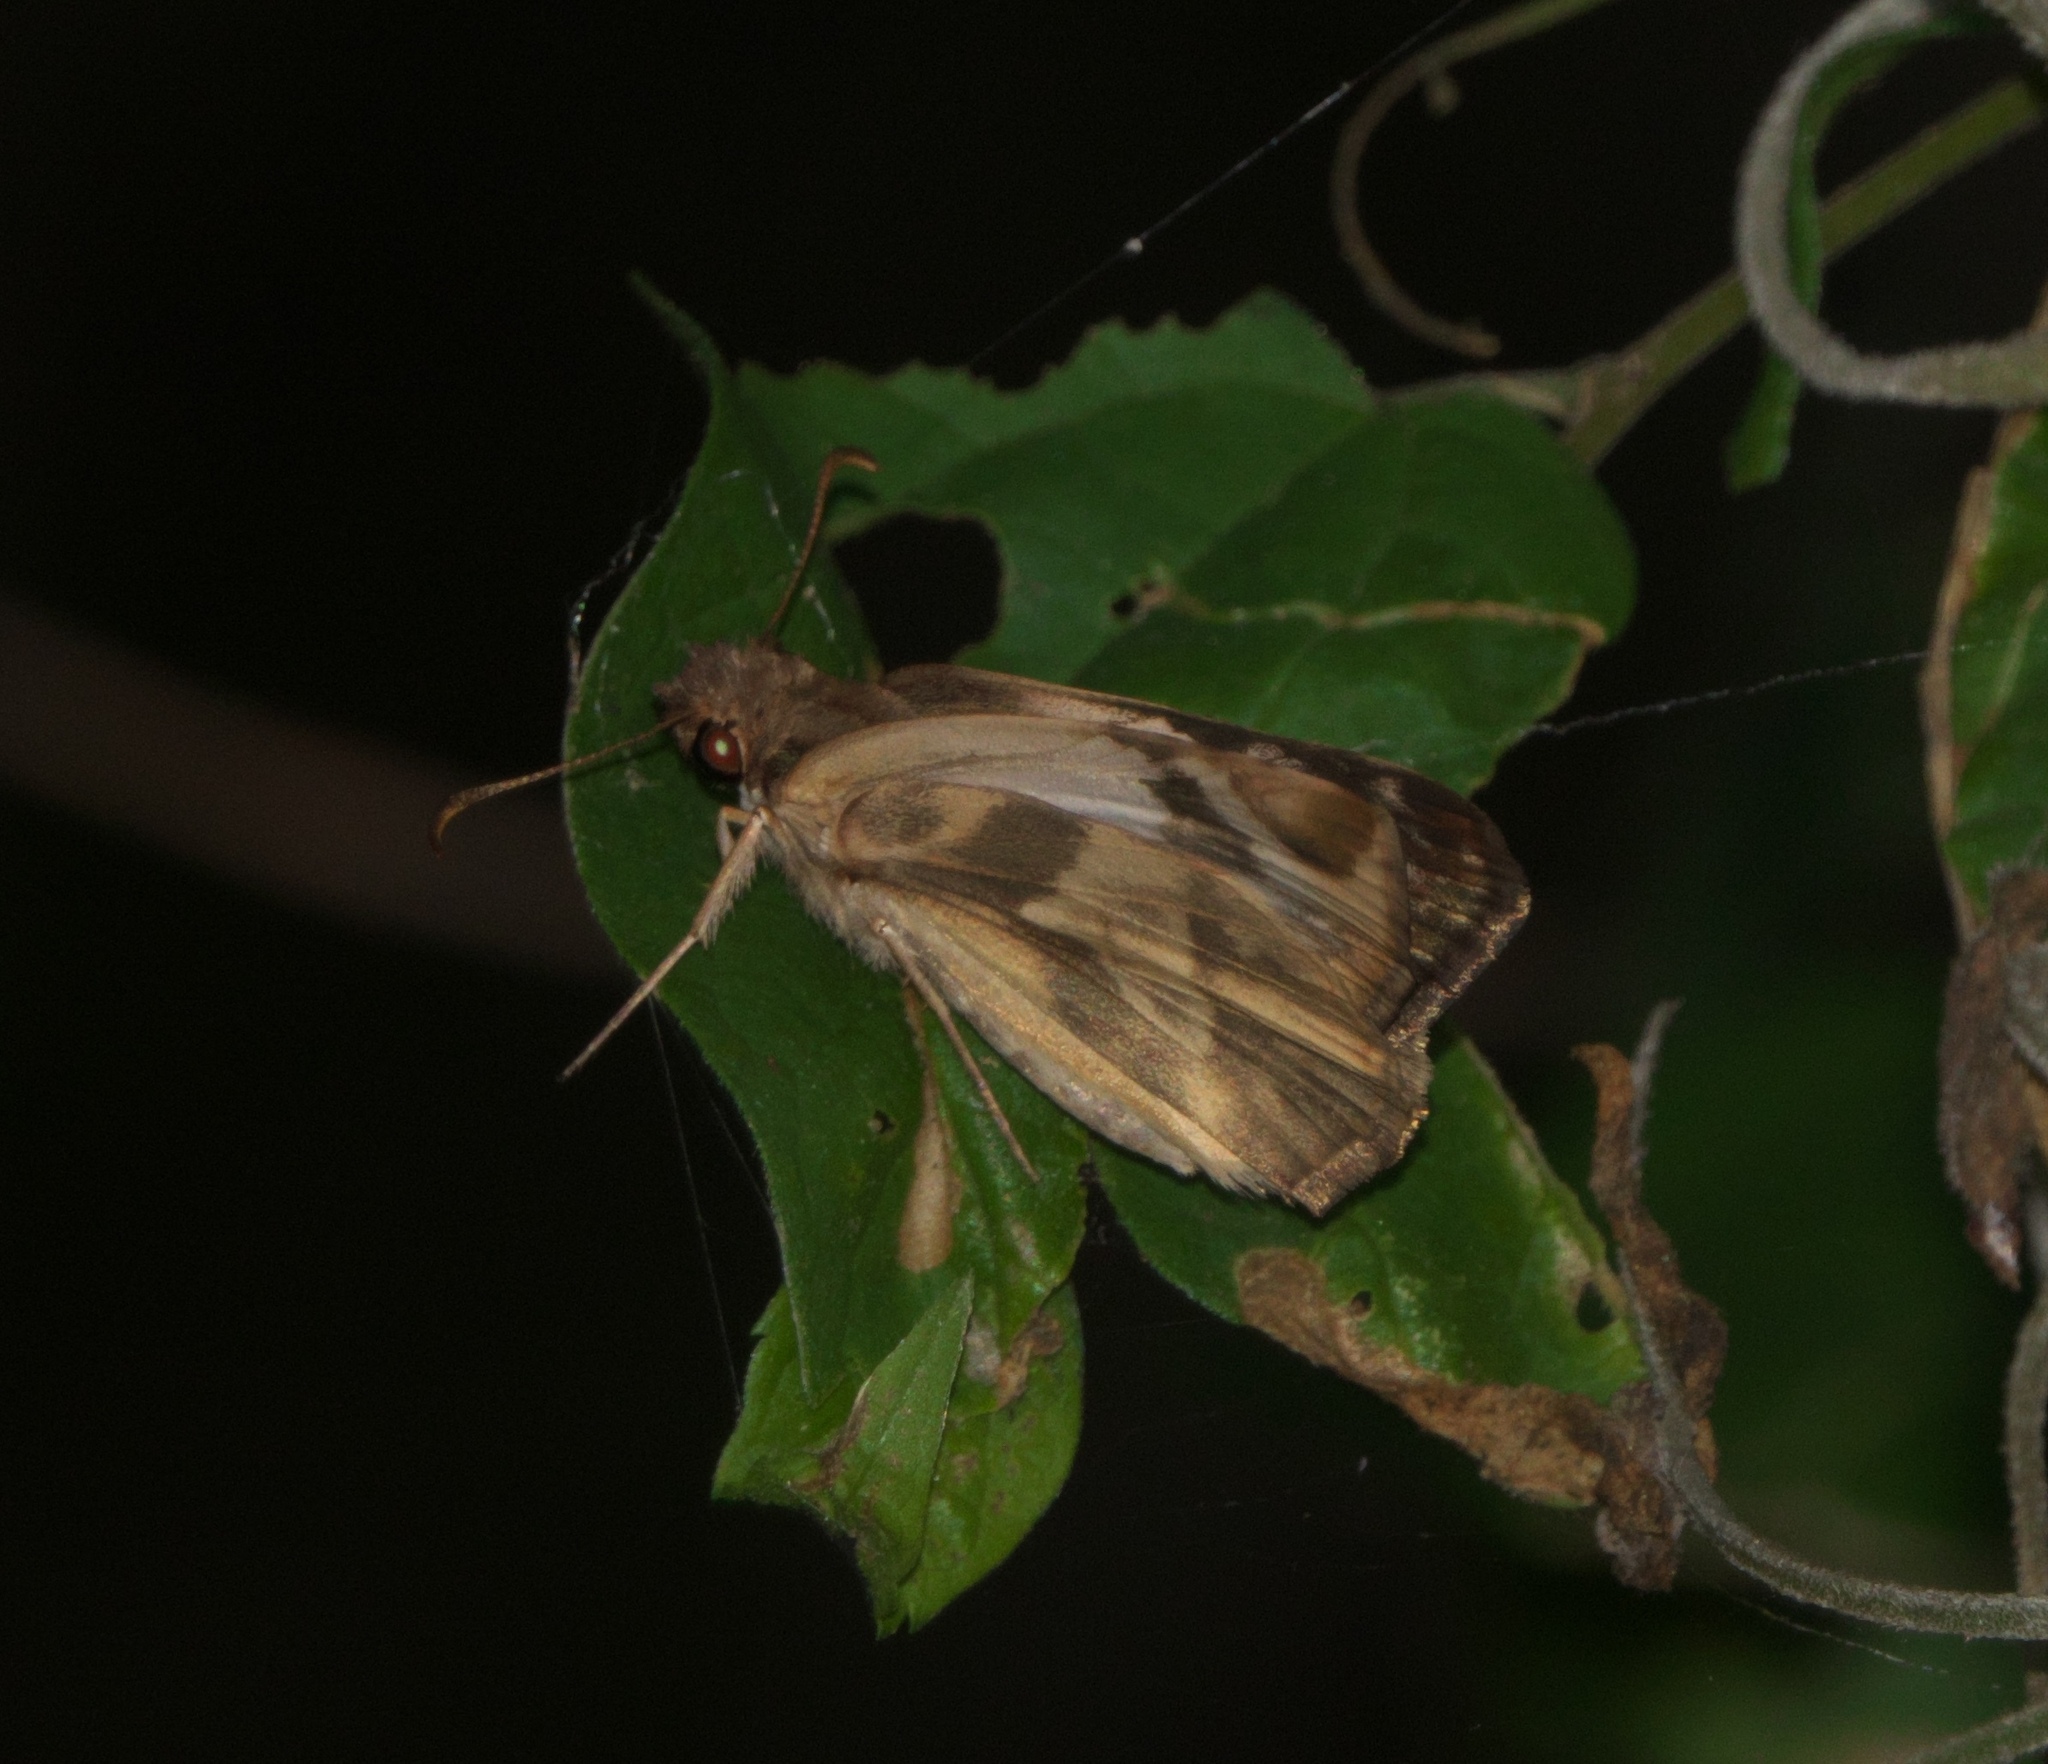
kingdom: Animalia
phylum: Arthropoda
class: Insecta
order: Lepidoptera
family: Hesperiidae
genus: Heliopetes
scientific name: Heliopetes laviana
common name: Laviana white-skipper
